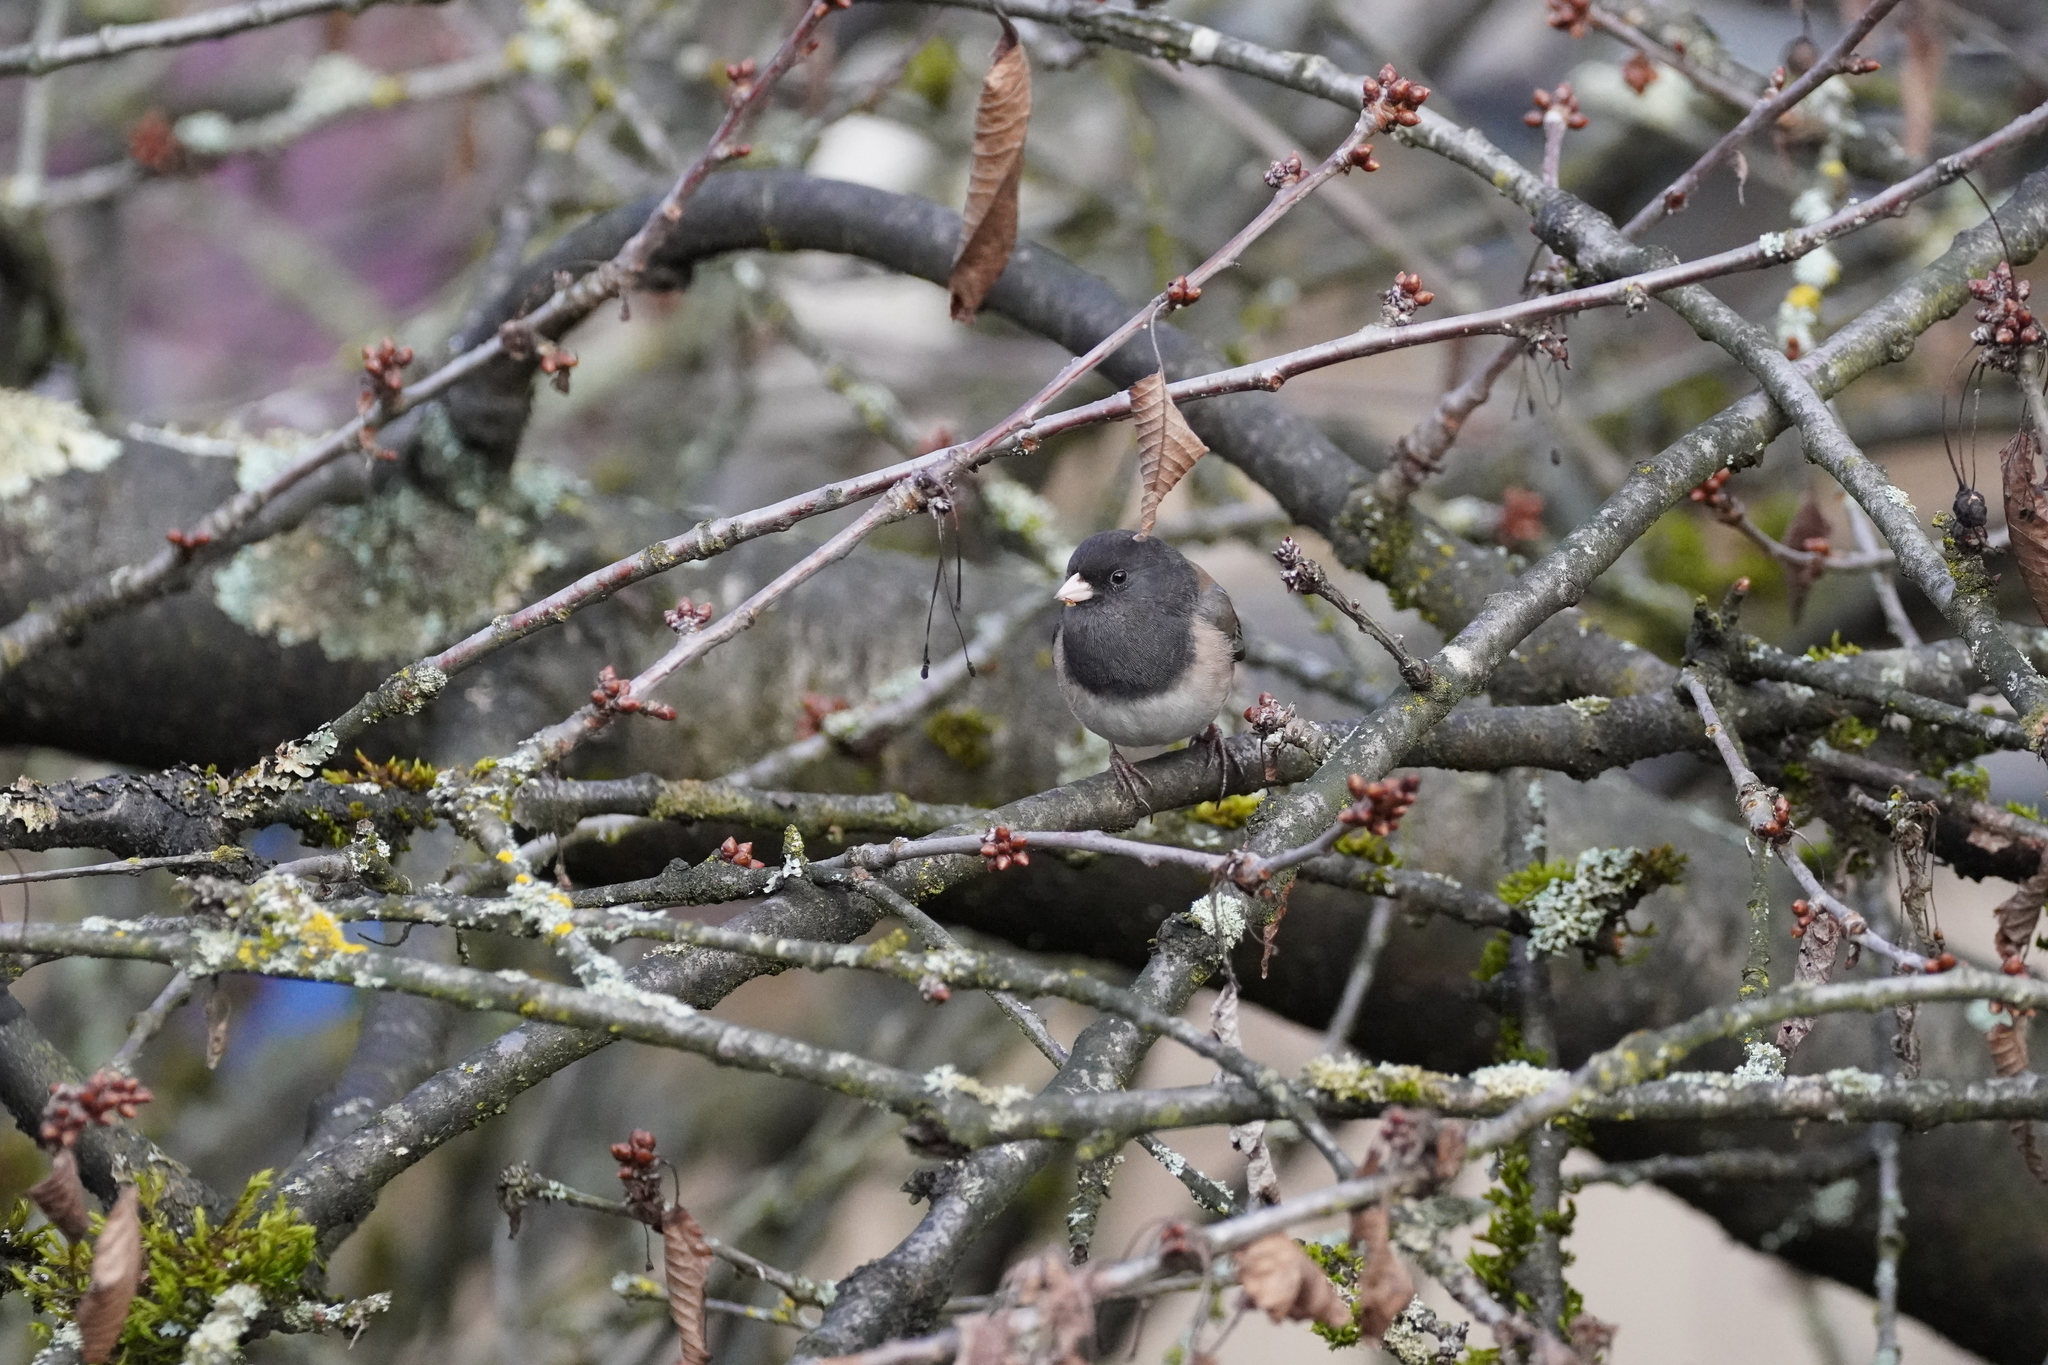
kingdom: Animalia
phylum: Chordata
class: Aves
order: Passeriformes
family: Passerellidae
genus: Junco
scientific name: Junco hyemalis
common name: Dark-eyed junco
